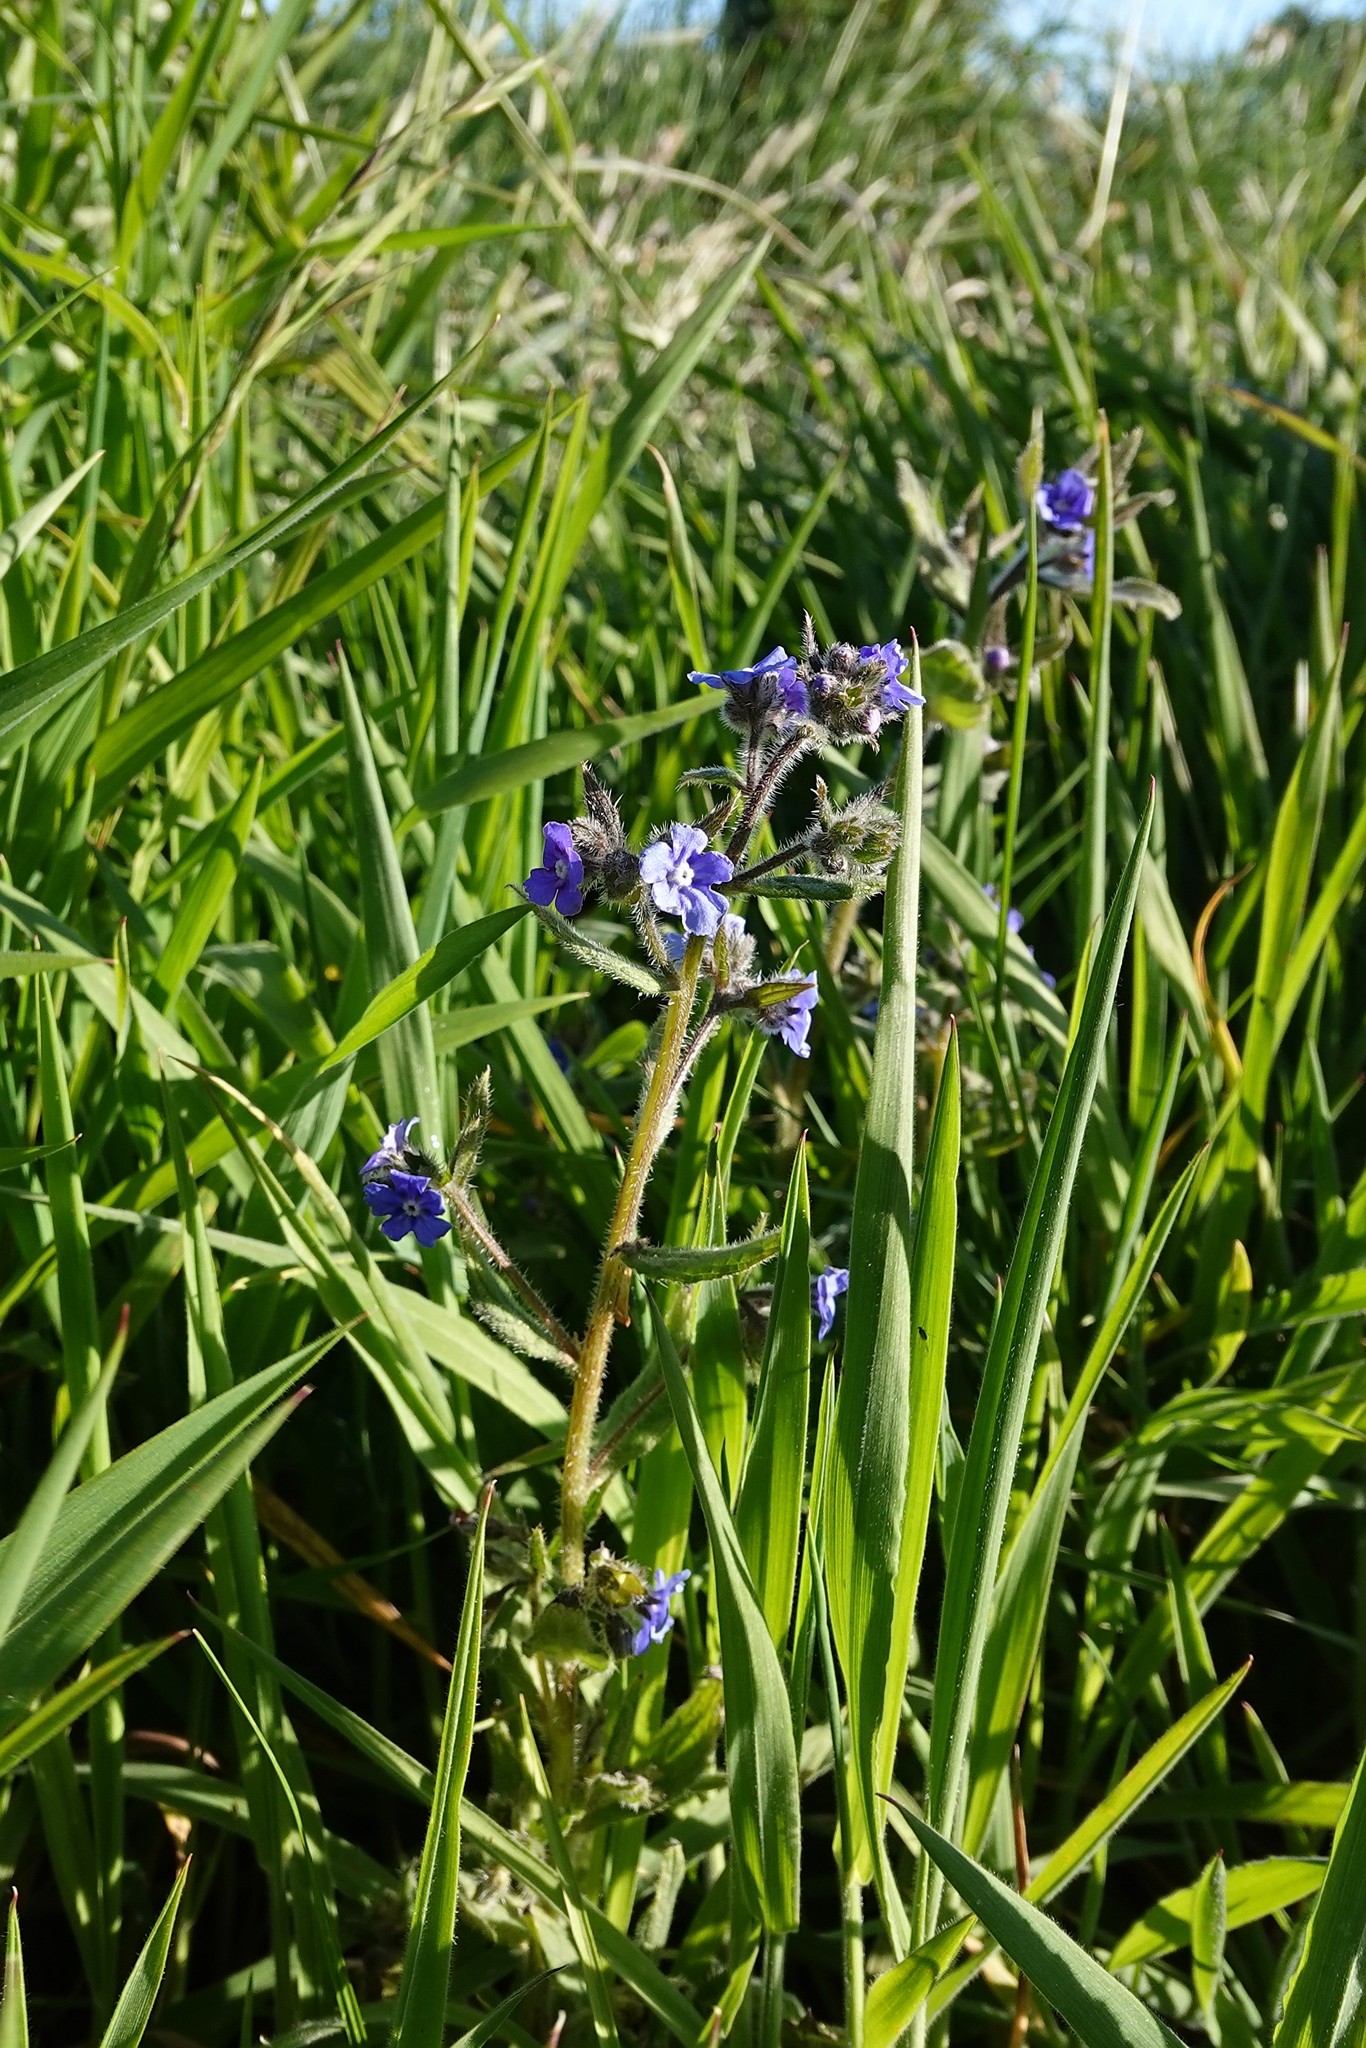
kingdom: Plantae
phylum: Tracheophyta
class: Magnoliopsida
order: Boraginales
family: Boraginaceae
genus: Pentaglottis
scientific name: Pentaglottis sempervirens
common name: Green alkanet
